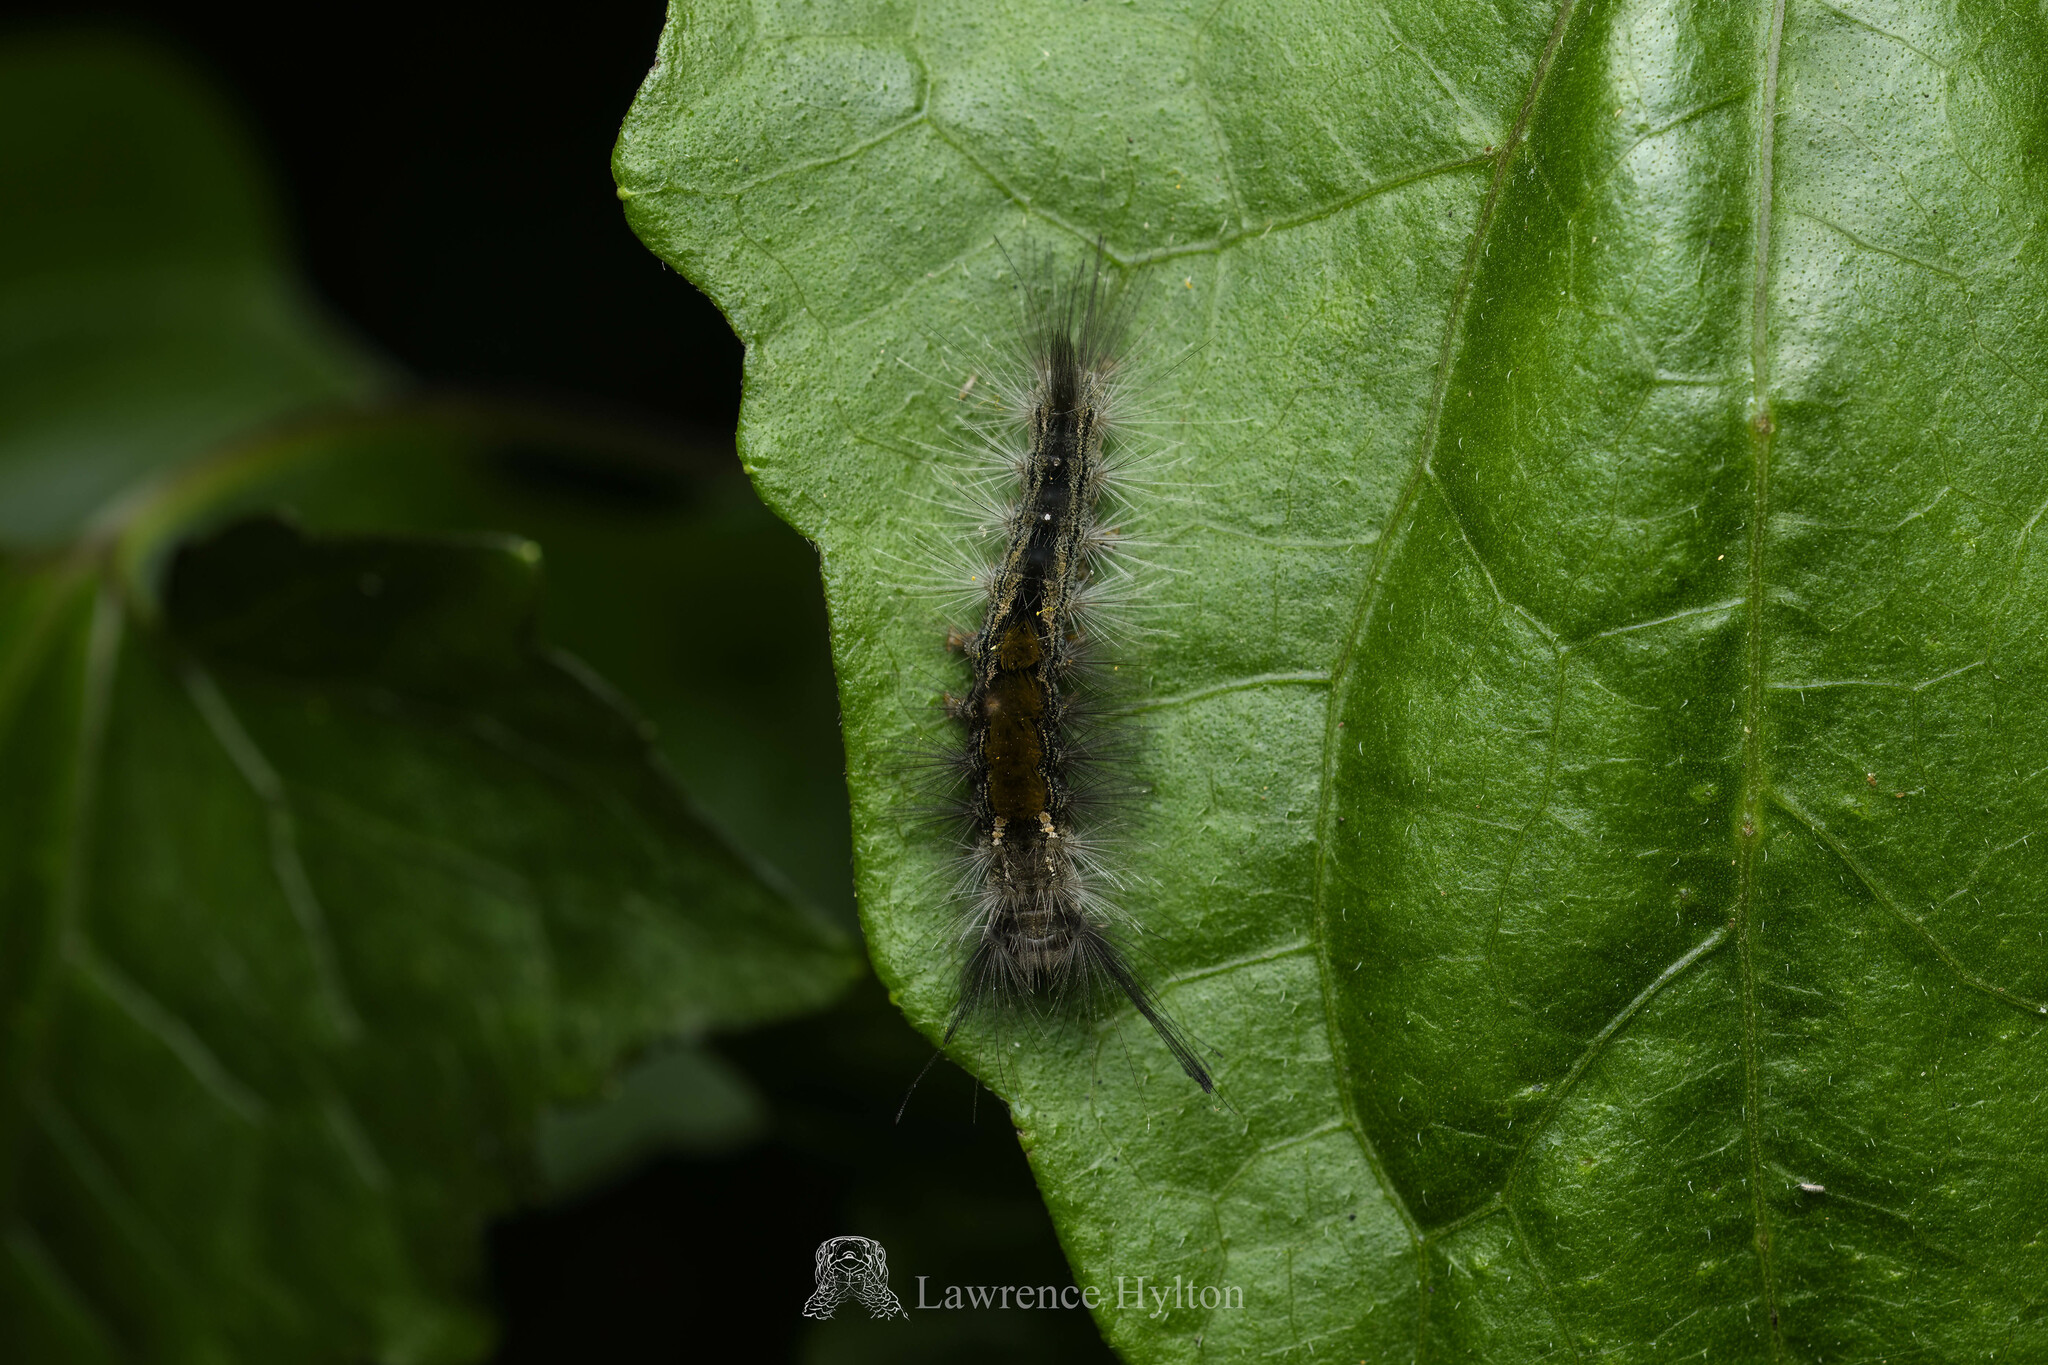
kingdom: Animalia
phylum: Arthropoda
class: Insecta
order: Lepidoptera
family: Erebidae
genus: Dasychira
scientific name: Dasychira chekiangensis
